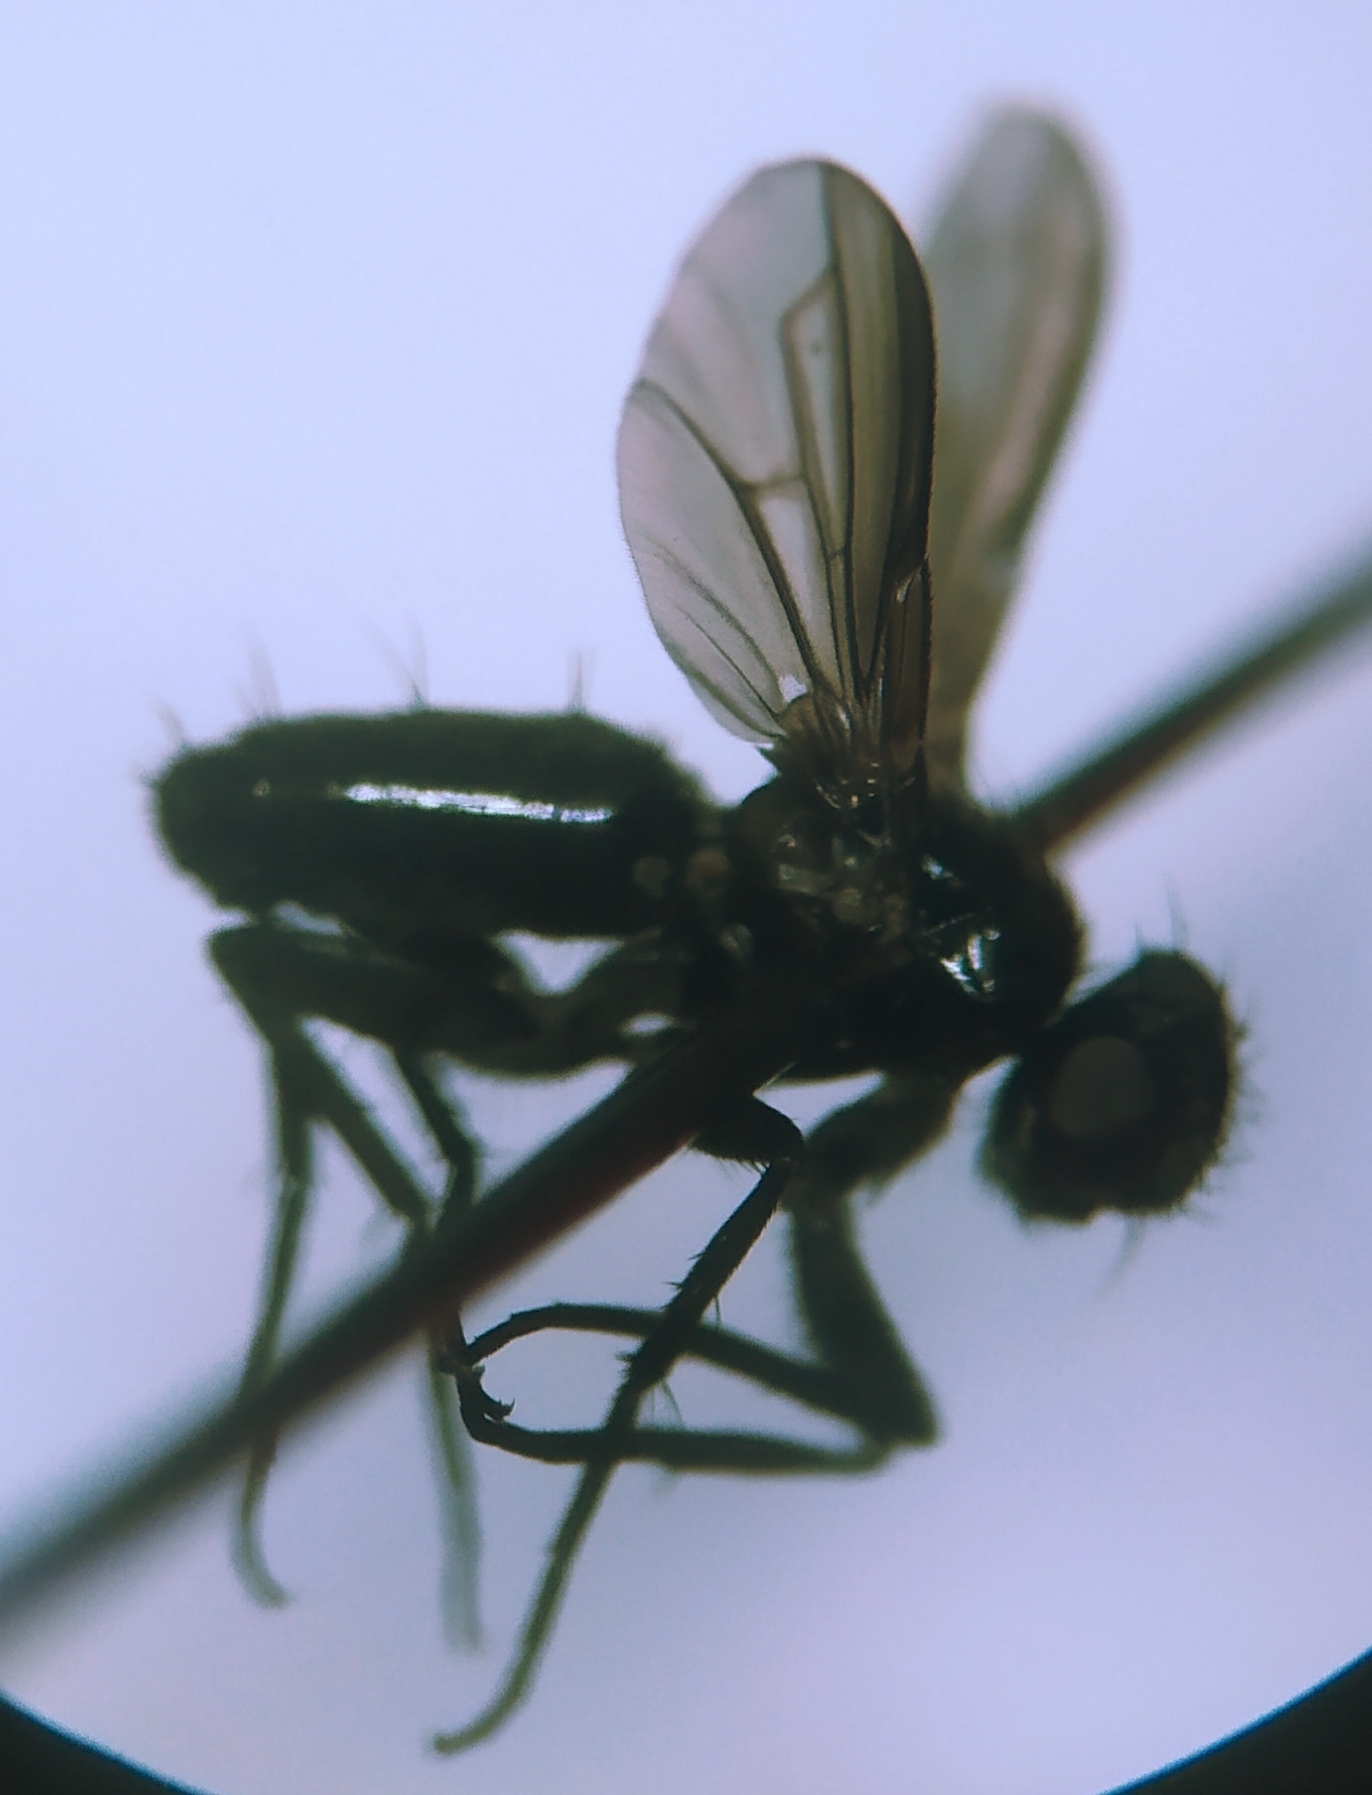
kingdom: Animalia
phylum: Arthropoda
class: Insecta
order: Diptera
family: Calliphoridae
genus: Melanophora
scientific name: Melanophora roralis
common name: Smoky-winged woodlouse-fly
